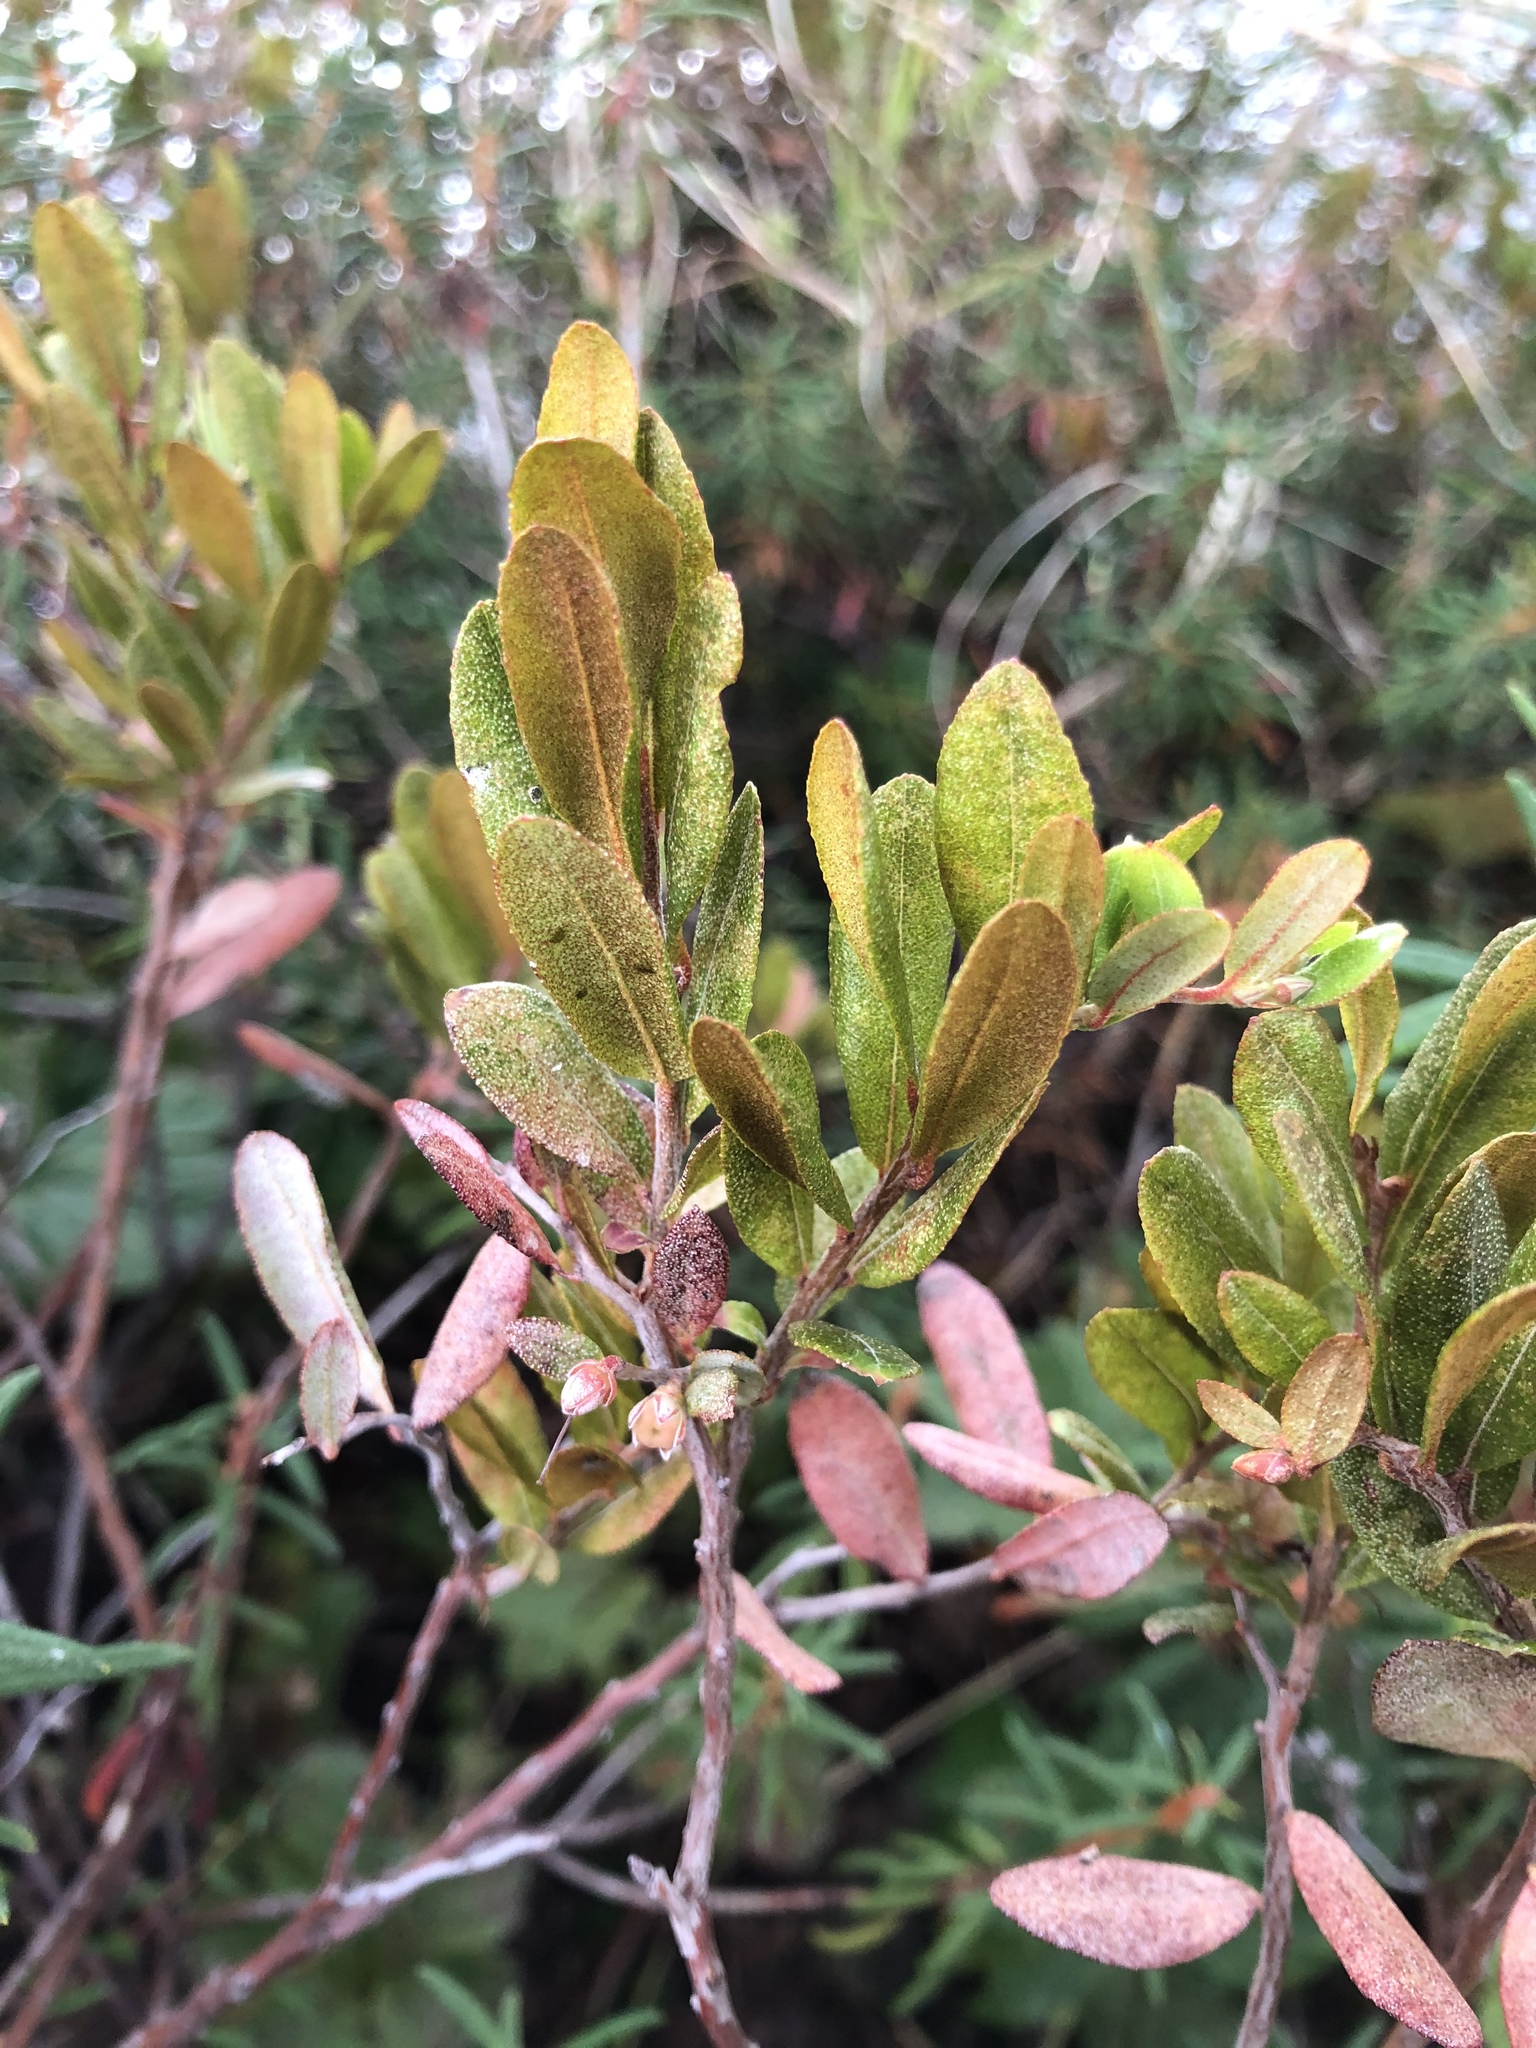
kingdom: Plantae
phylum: Tracheophyta
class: Magnoliopsida
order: Ericales
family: Ericaceae
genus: Chamaedaphne
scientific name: Chamaedaphne calyculata
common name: Leatherleaf
